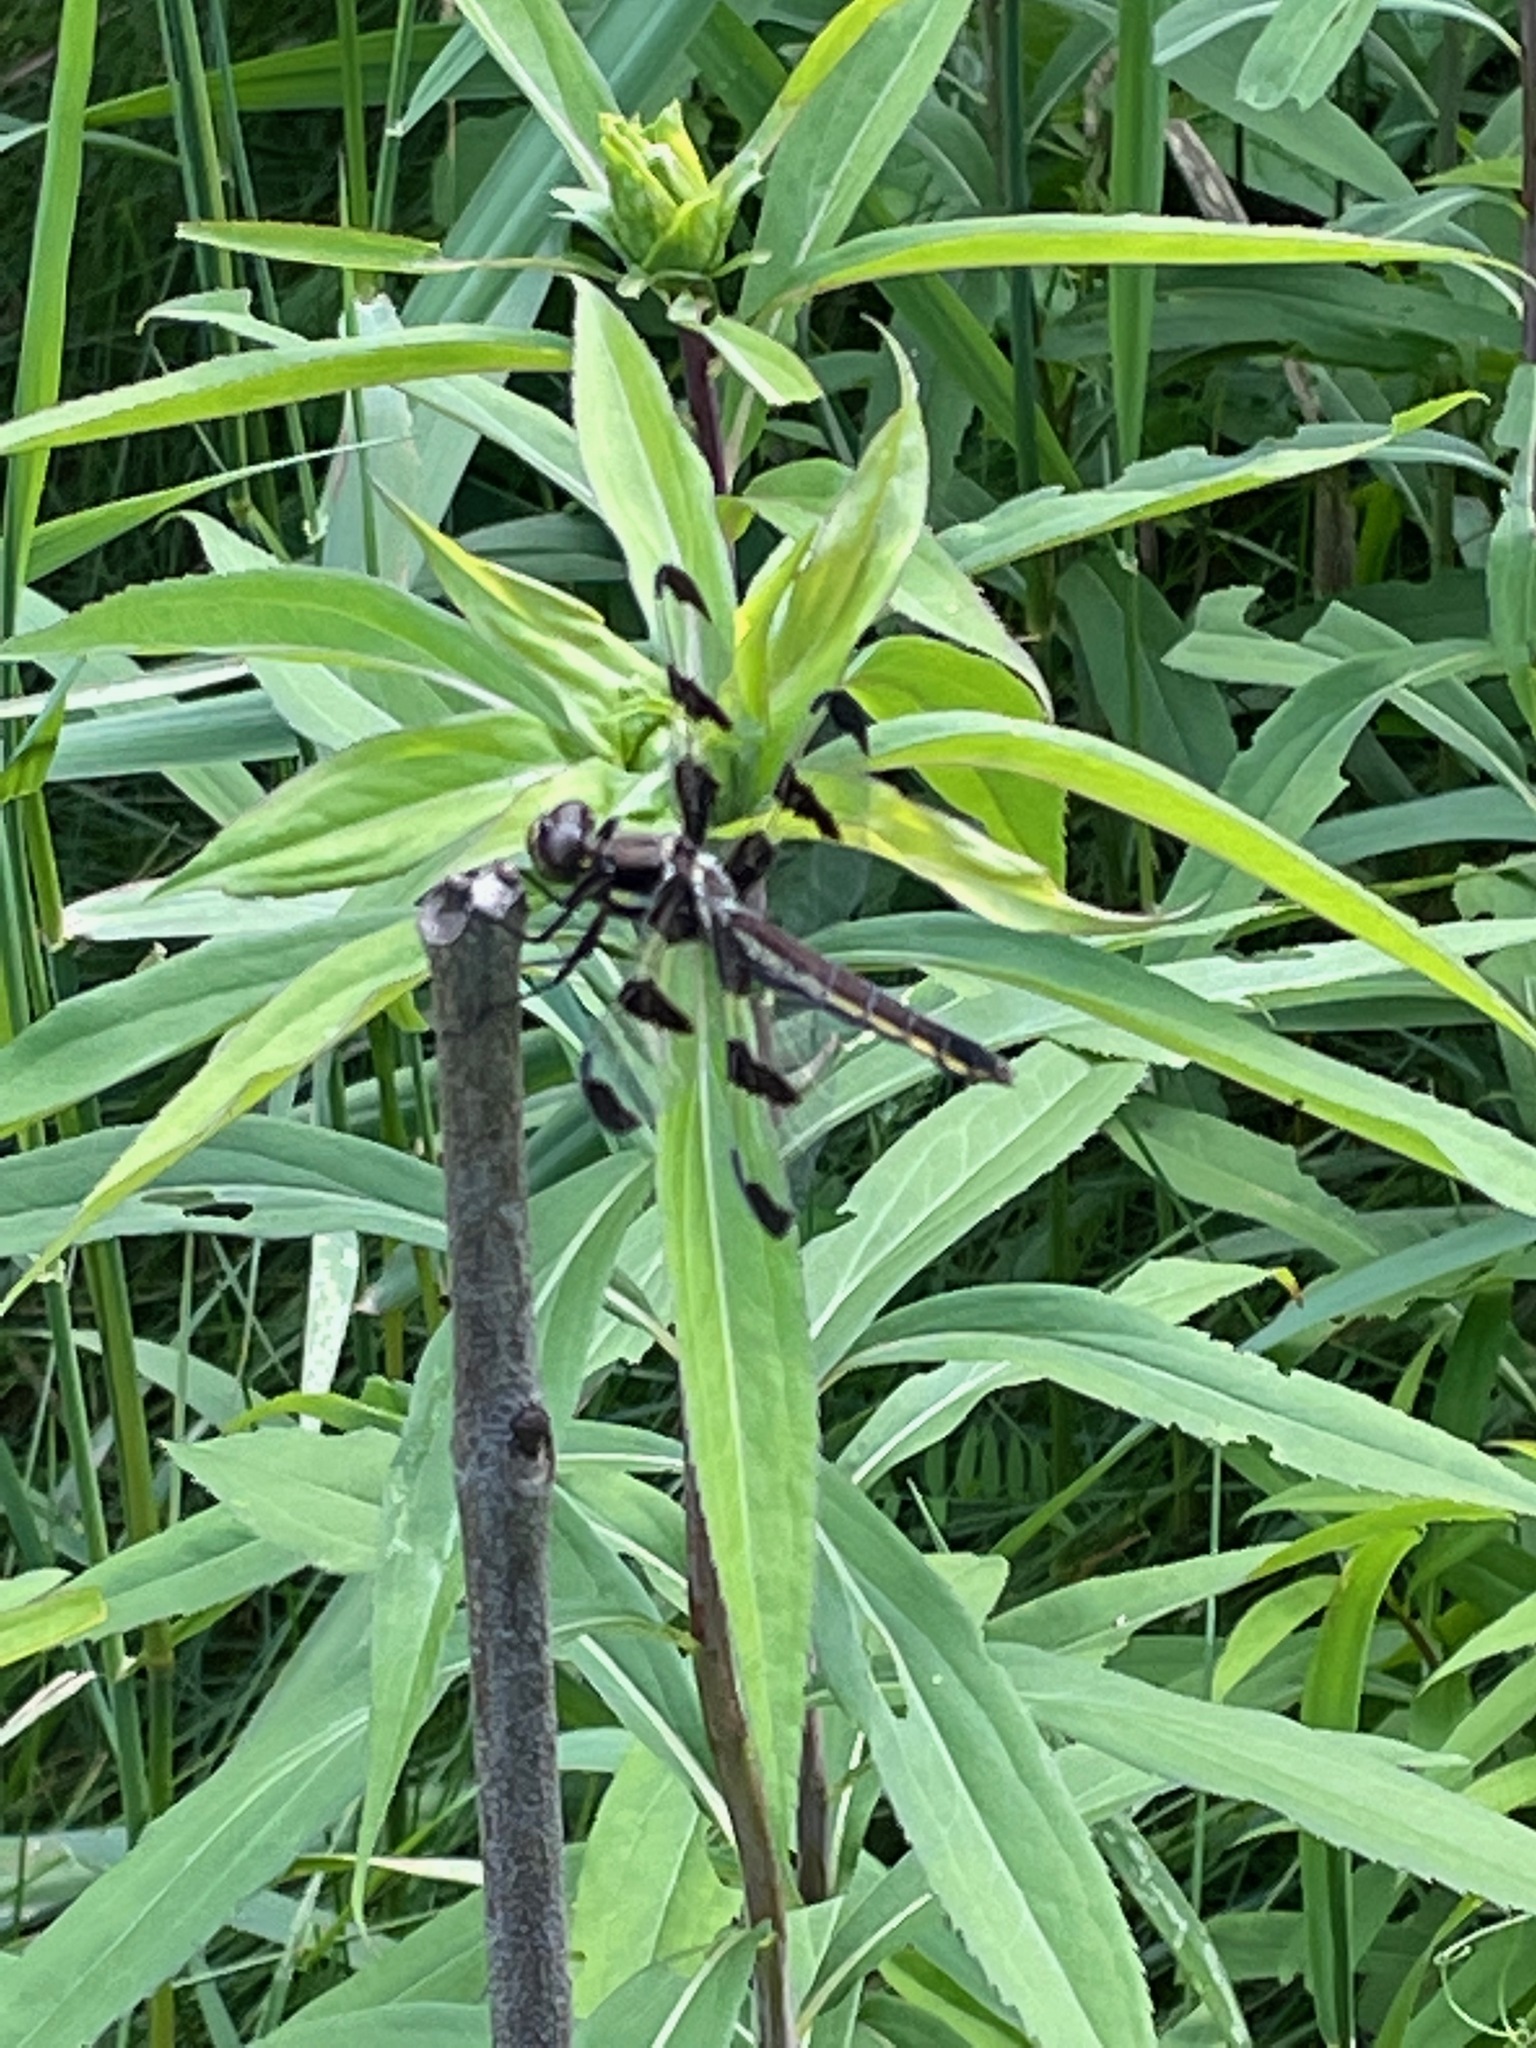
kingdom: Animalia
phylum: Arthropoda
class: Insecta
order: Odonata
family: Libellulidae
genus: Libellula
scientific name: Libellula pulchella
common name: Twelve-spotted skimmer
